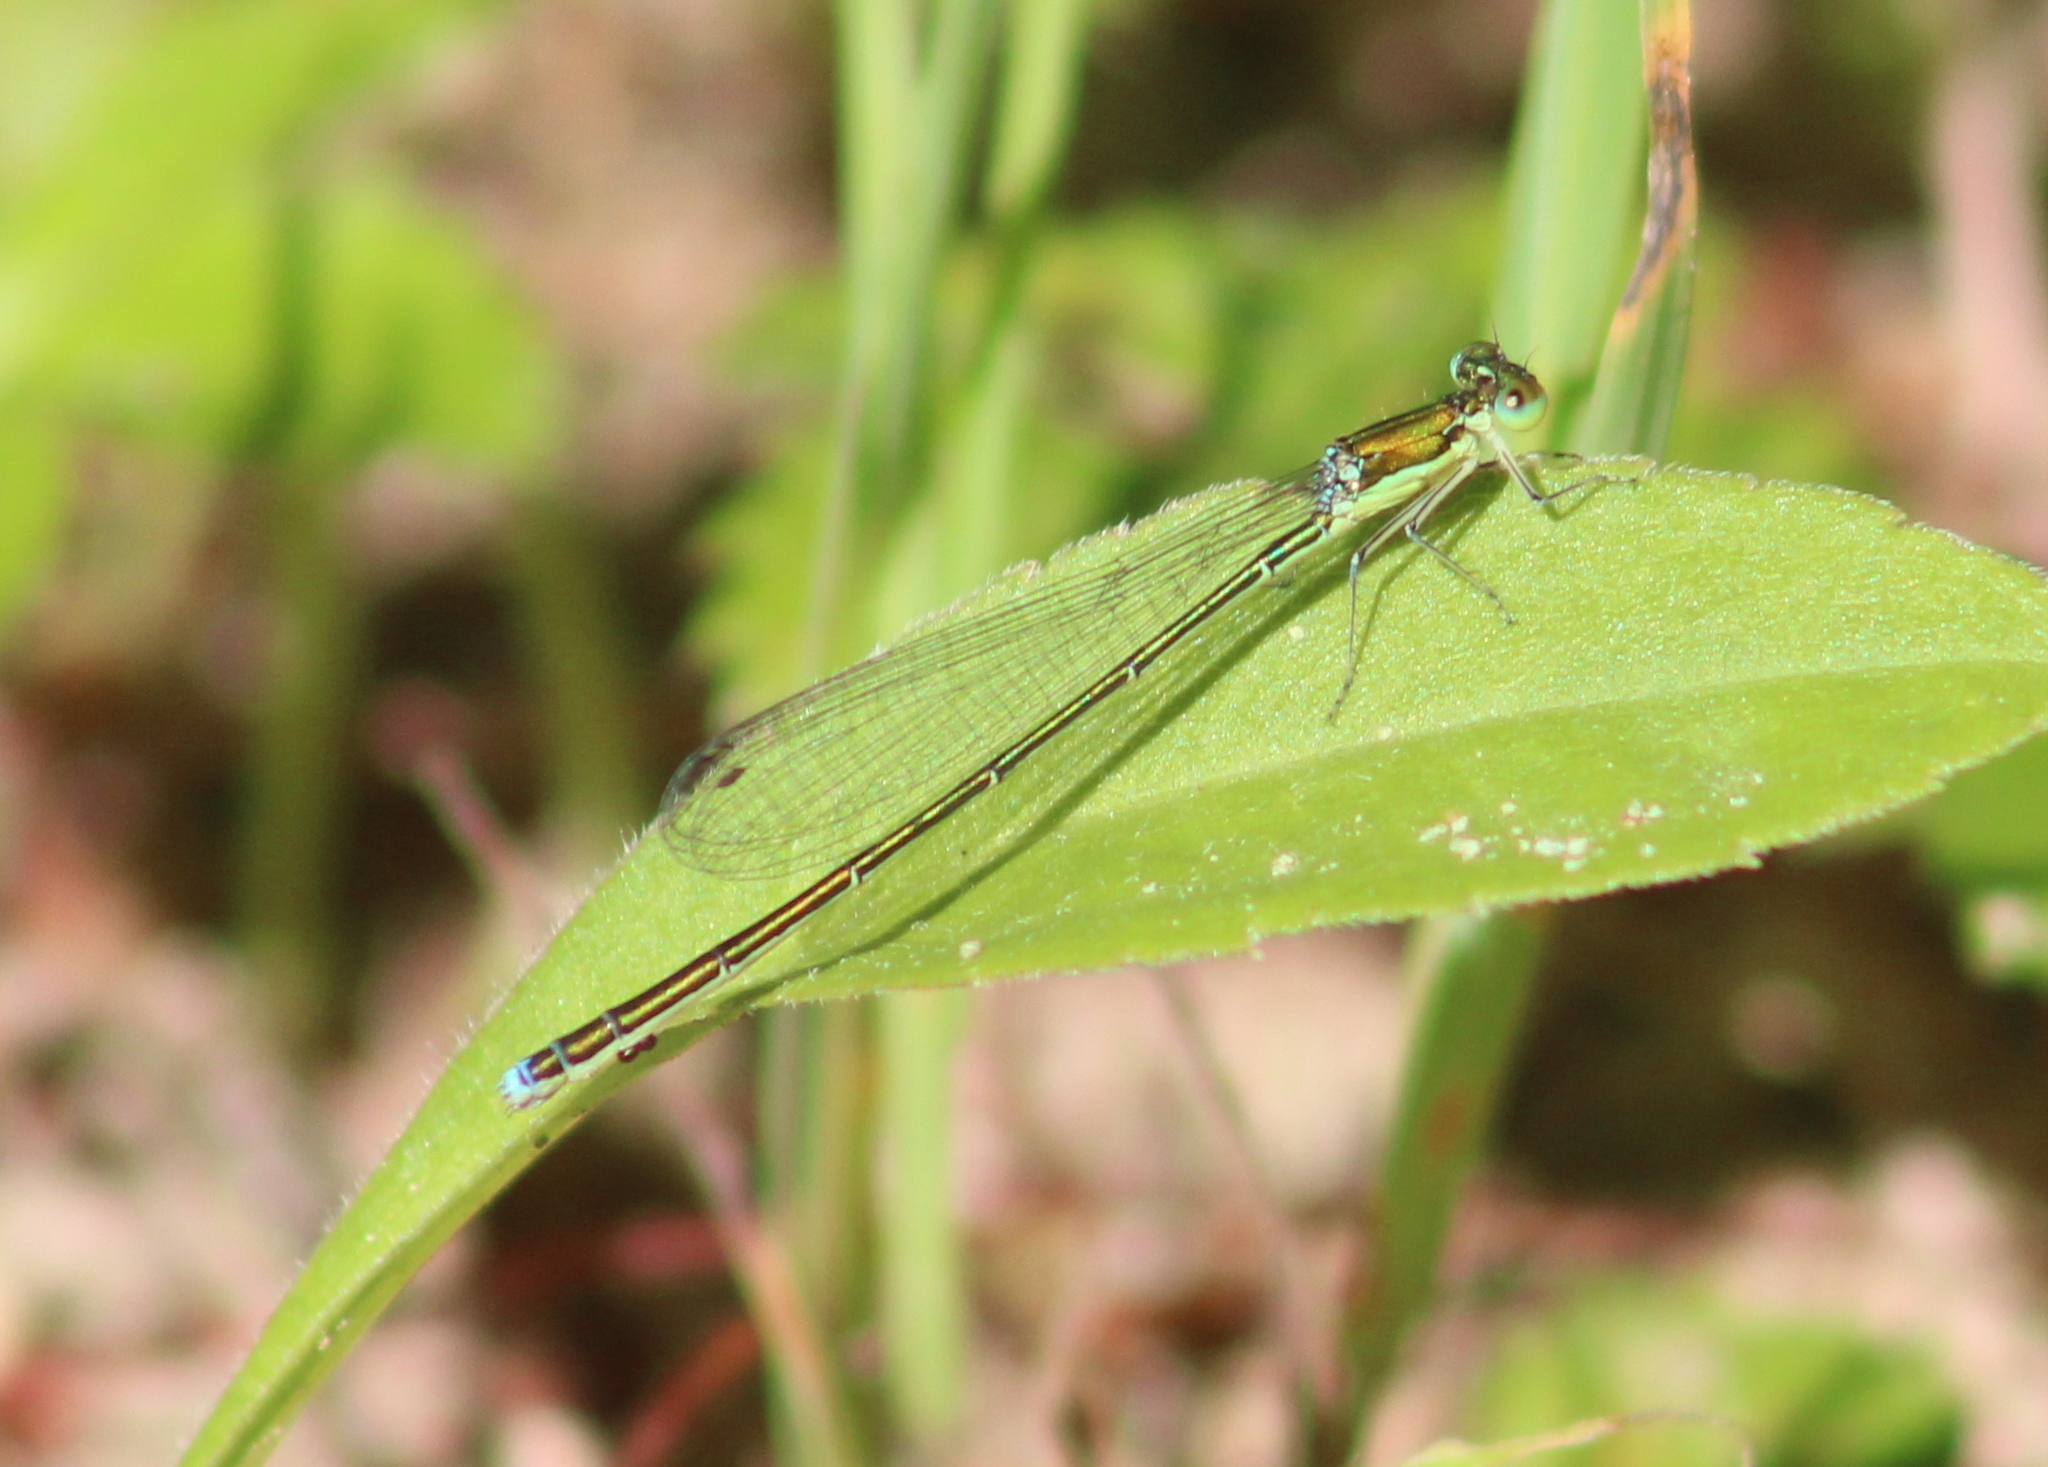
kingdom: Animalia
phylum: Arthropoda
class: Insecta
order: Odonata
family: Coenagrionidae
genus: Nehalennia
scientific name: Nehalennia irene
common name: Sedge sprite
